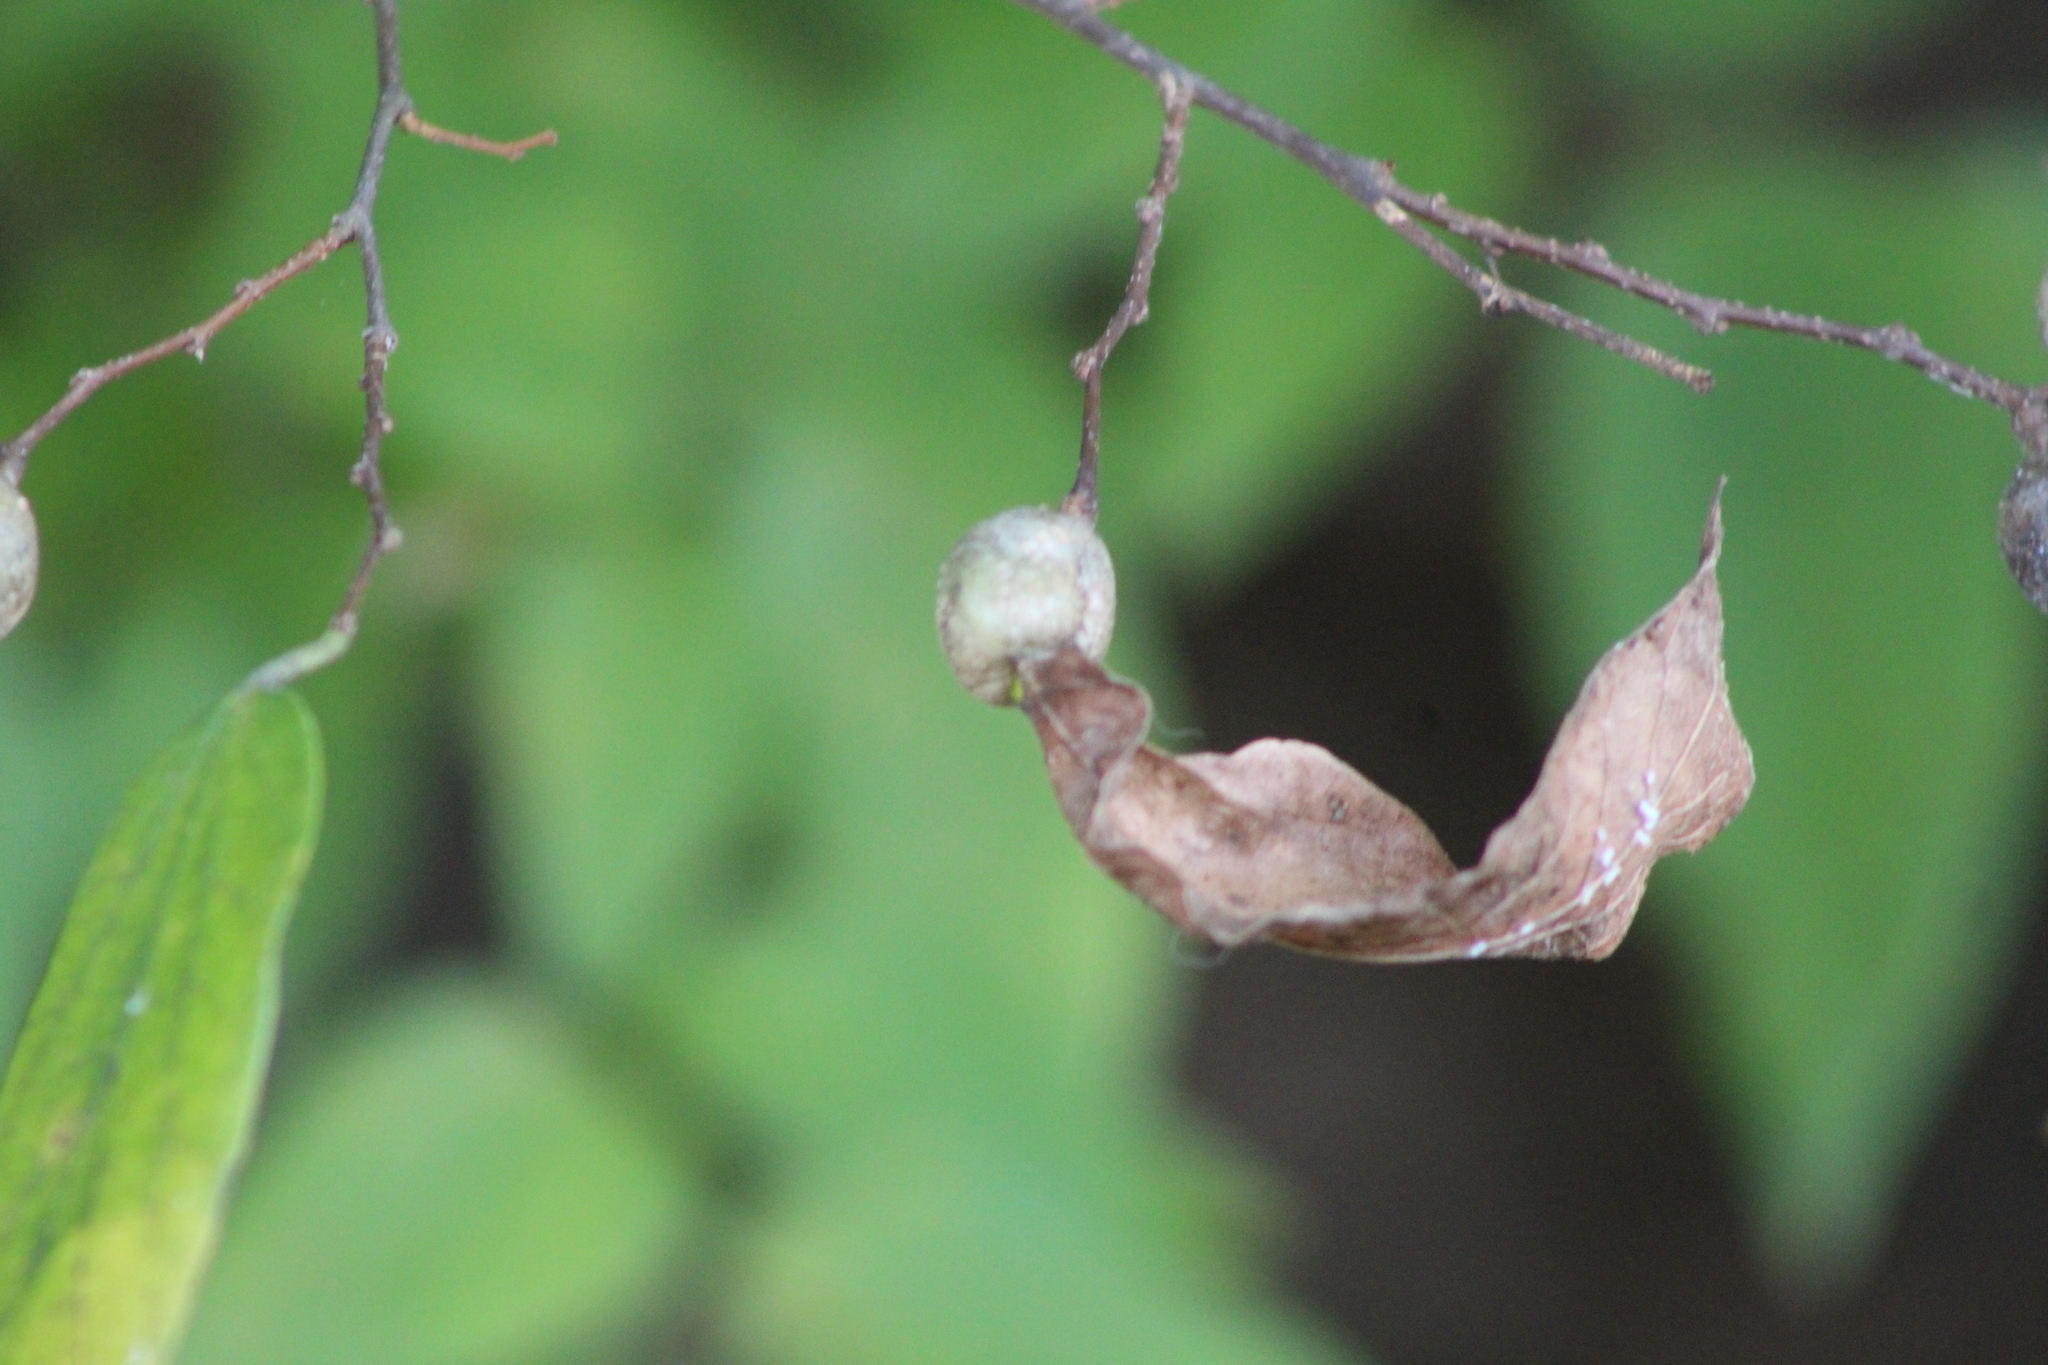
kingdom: Animalia
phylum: Arthropoda
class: Insecta
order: Hemiptera
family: Aphalaridae
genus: Pachypsylla
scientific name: Pachypsylla venusta
